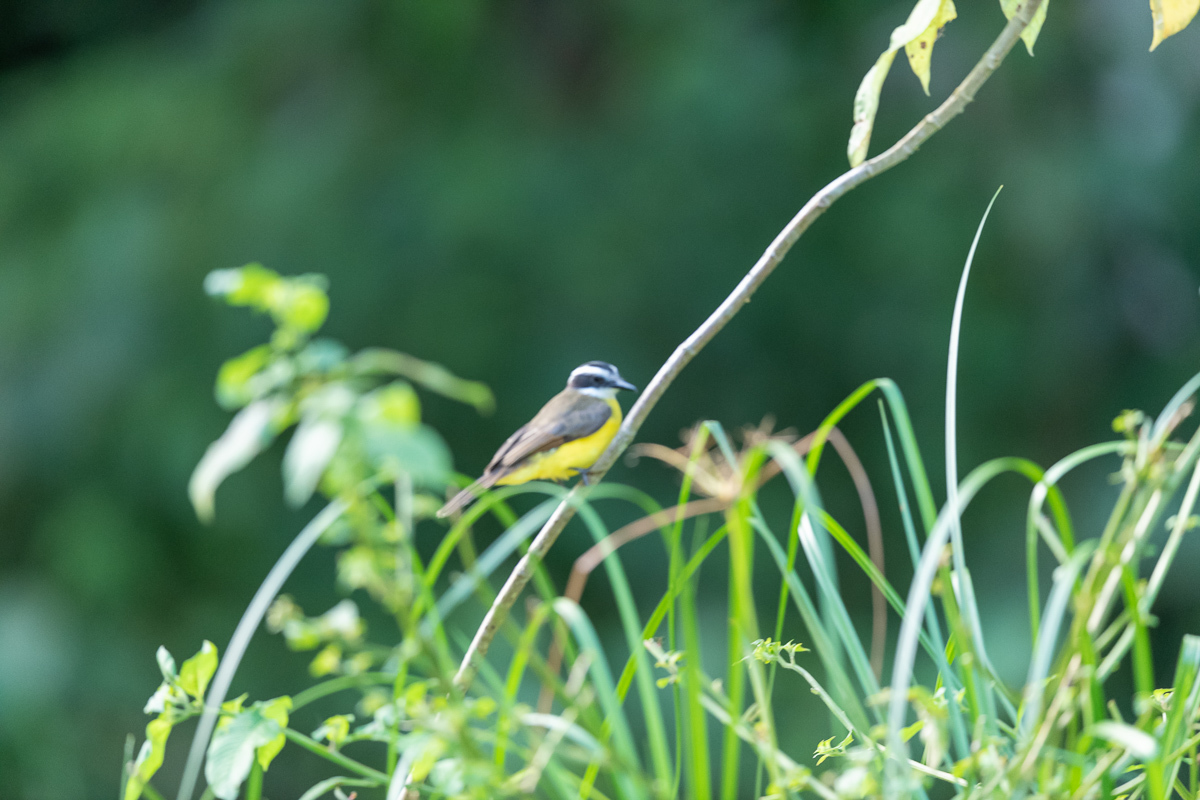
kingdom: Animalia
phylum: Chordata
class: Aves
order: Passeriformes
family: Tyrannidae
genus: Pitangus
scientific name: Pitangus lictor
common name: Lesser kiskadee
